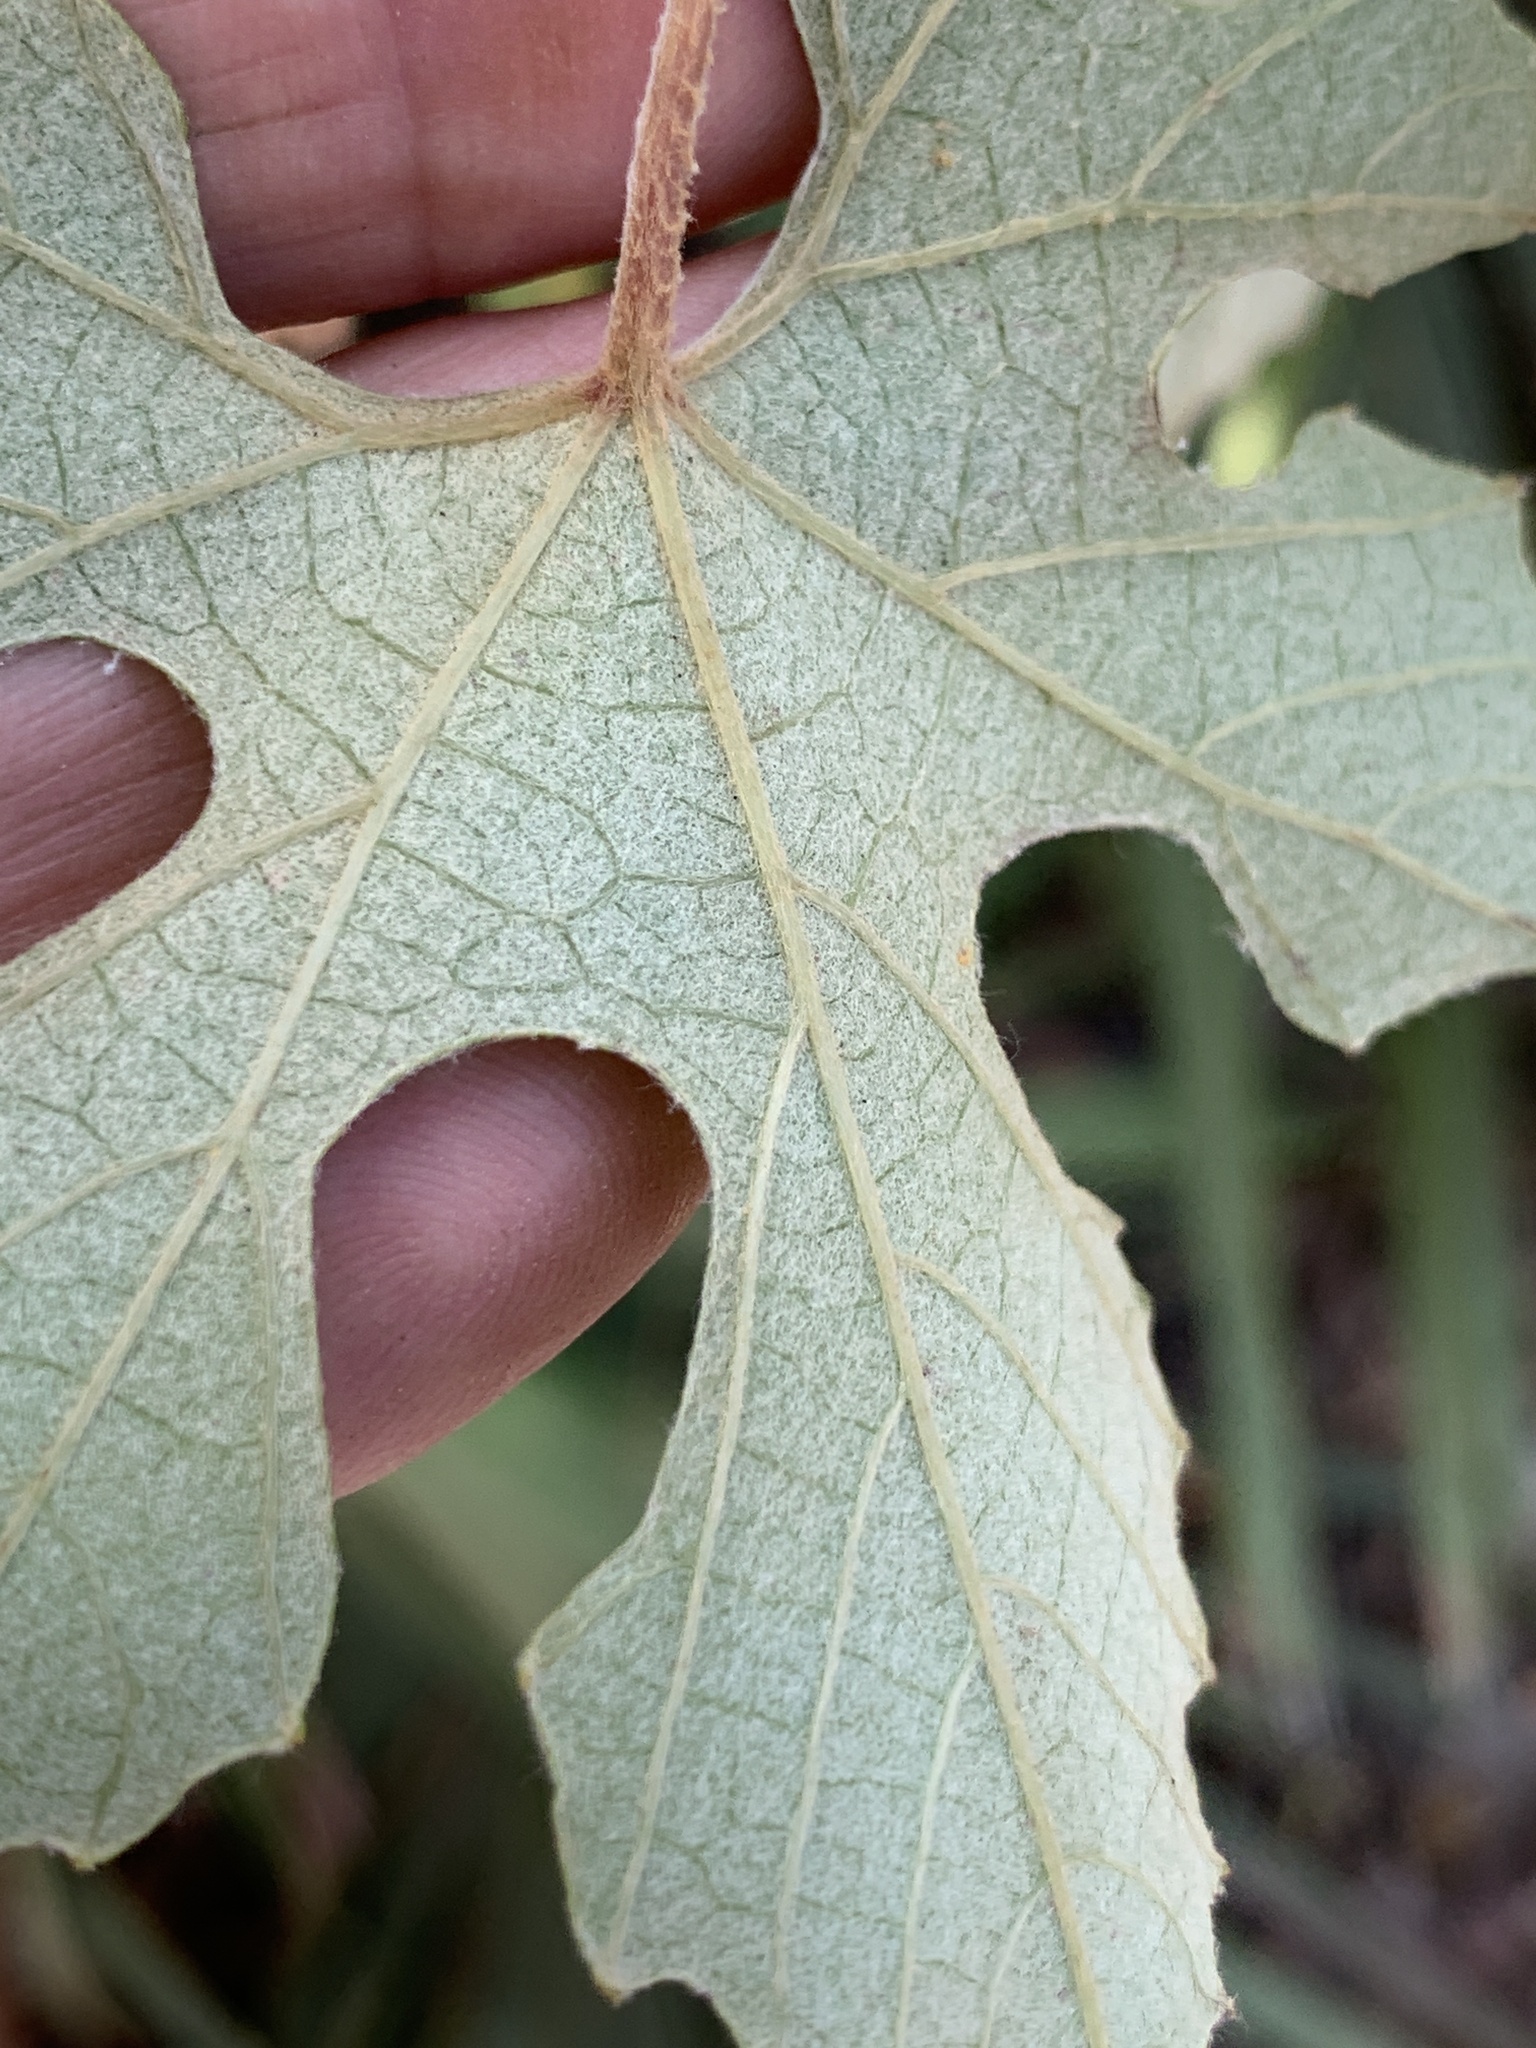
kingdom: Plantae
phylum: Tracheophyta
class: Magnoliopsida
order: Vitales
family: Vitaceae
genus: Vitis
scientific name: Vitis shuttleworthii
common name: Caloosa grape
